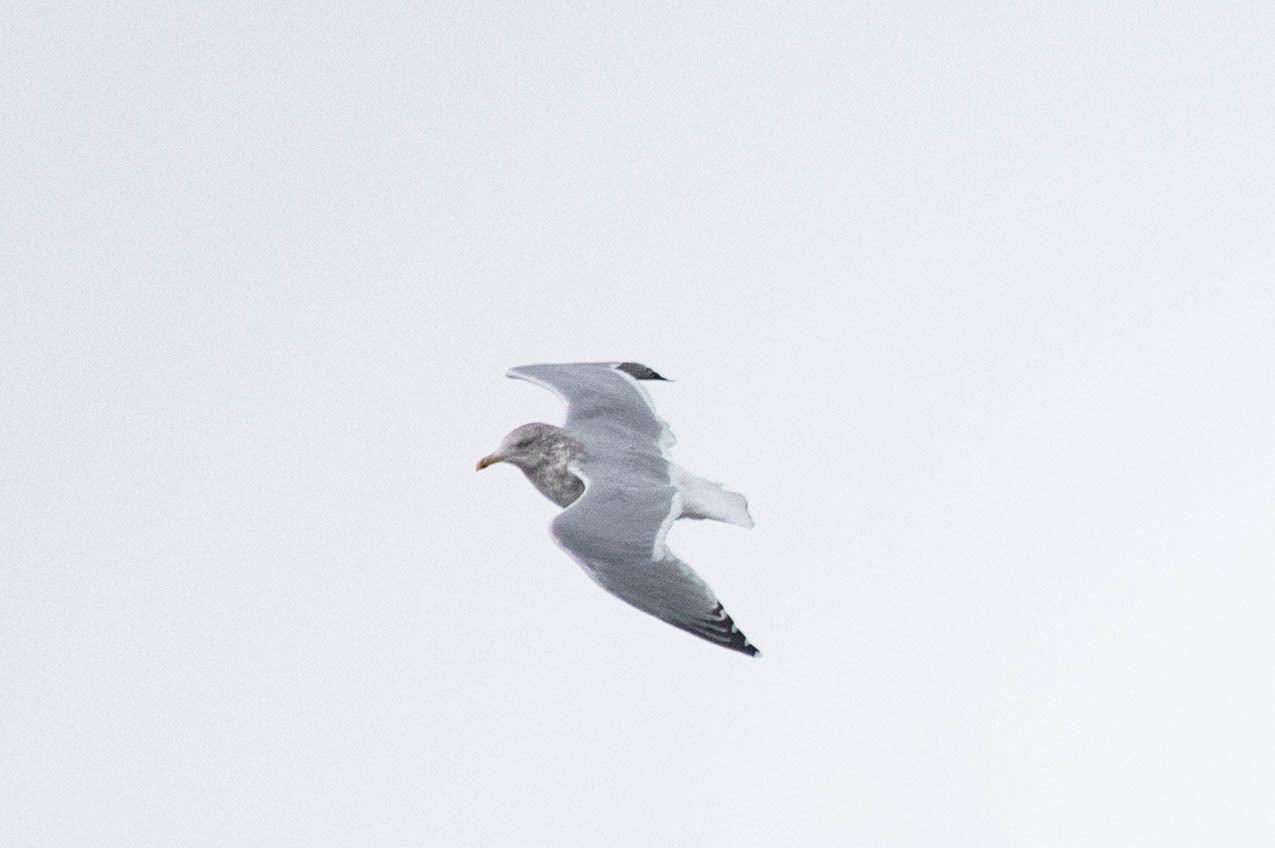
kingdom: Animalia
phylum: Chordata
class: Aves
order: Charadriiformes
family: Laridae
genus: Larus
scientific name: Larus argentatus
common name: Herring gull
